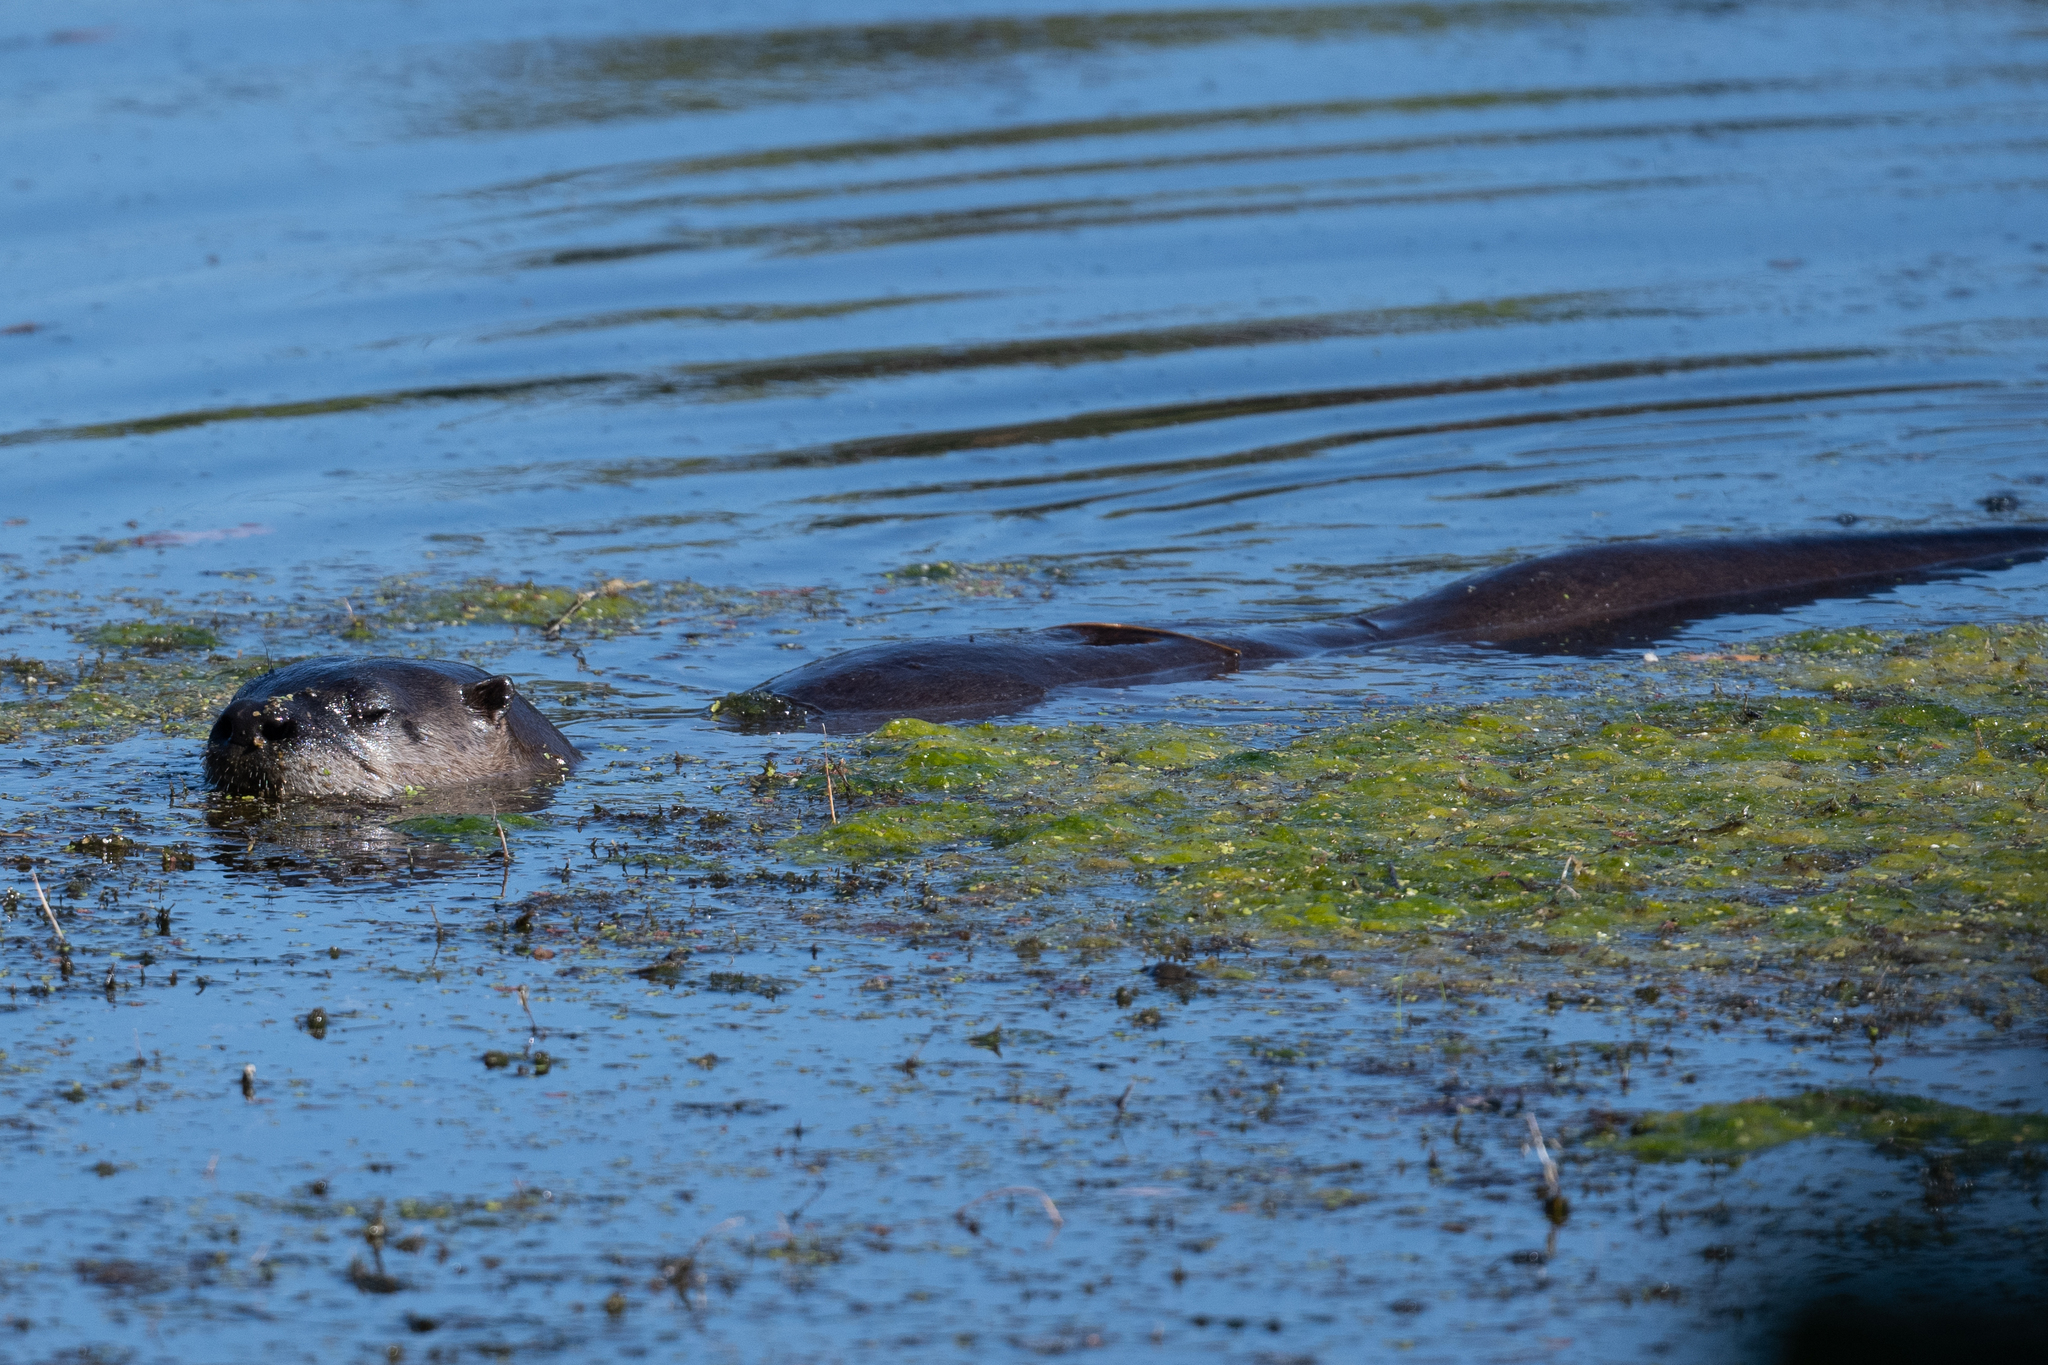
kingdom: Animalia
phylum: Chordata
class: Mammalia
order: Carnivora
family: Mustelidae
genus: Lontra
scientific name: Lontra canadensis
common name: North american river otter
